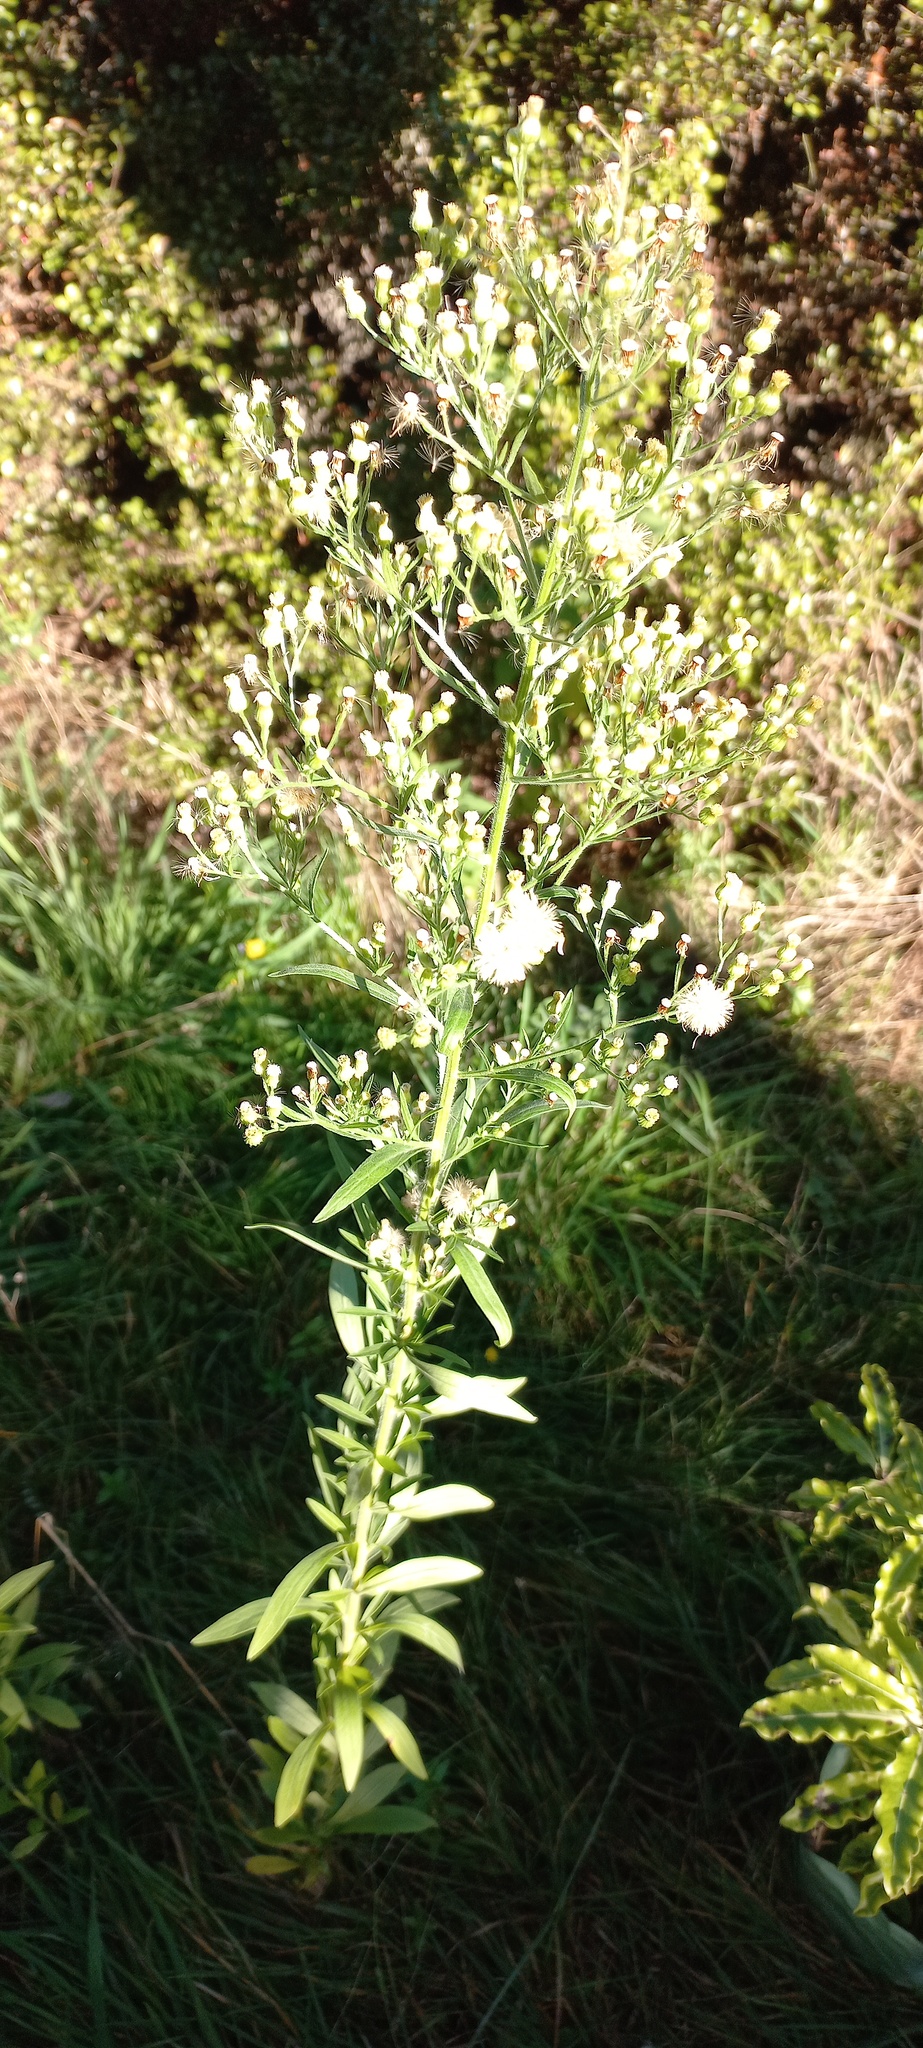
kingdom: Plantae
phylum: Tracheophyta
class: Magnoliopsida
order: Asterales
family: Asteraceae
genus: Erigeron
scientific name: Erigeron sumatrensis
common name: Daisy
